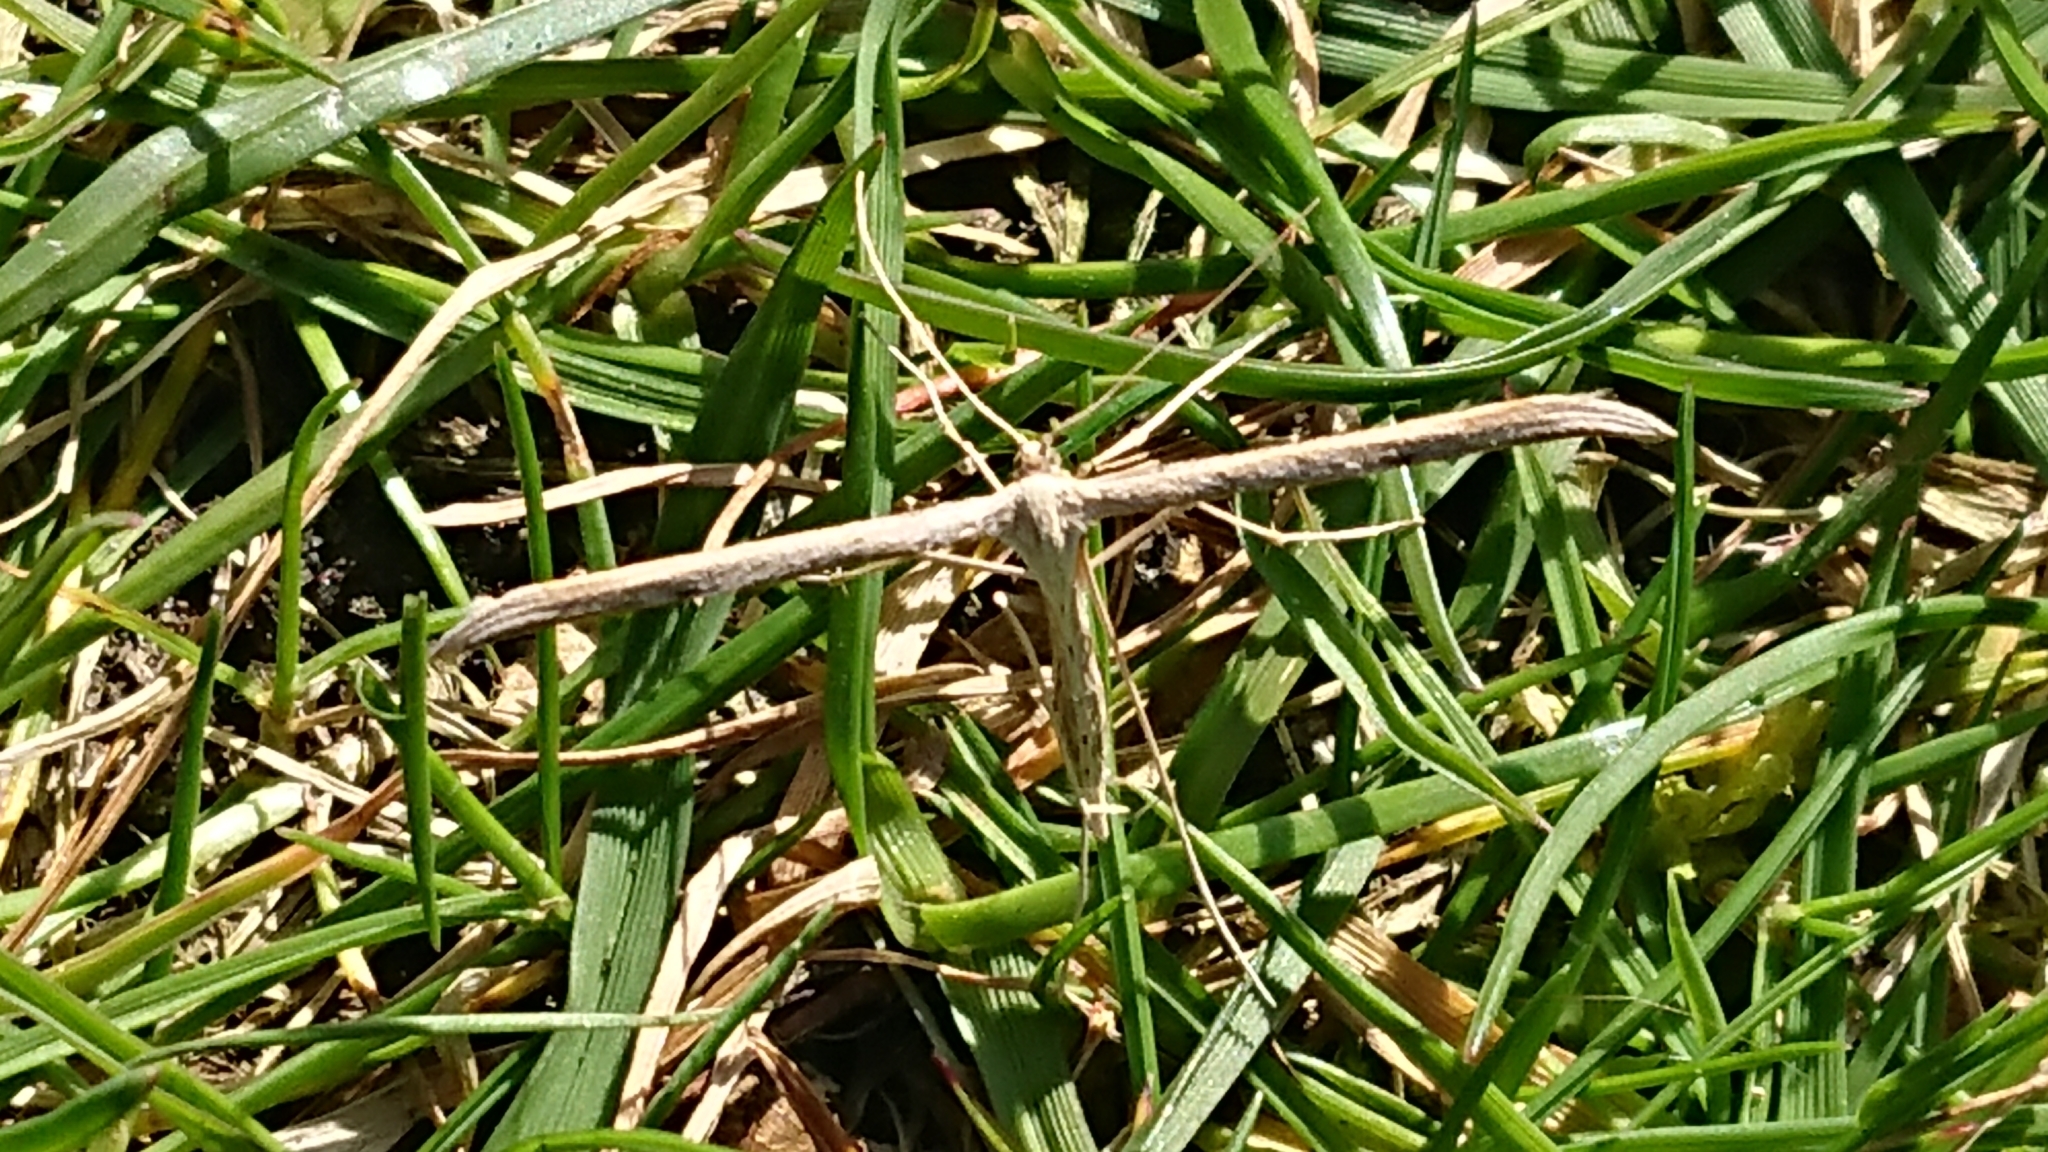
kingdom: Animalia
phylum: Arthropoda
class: Insecta
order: Lepidoptera
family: Pterophoridae
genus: Emmelina
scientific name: Emmelina monodactyla
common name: Common plume
